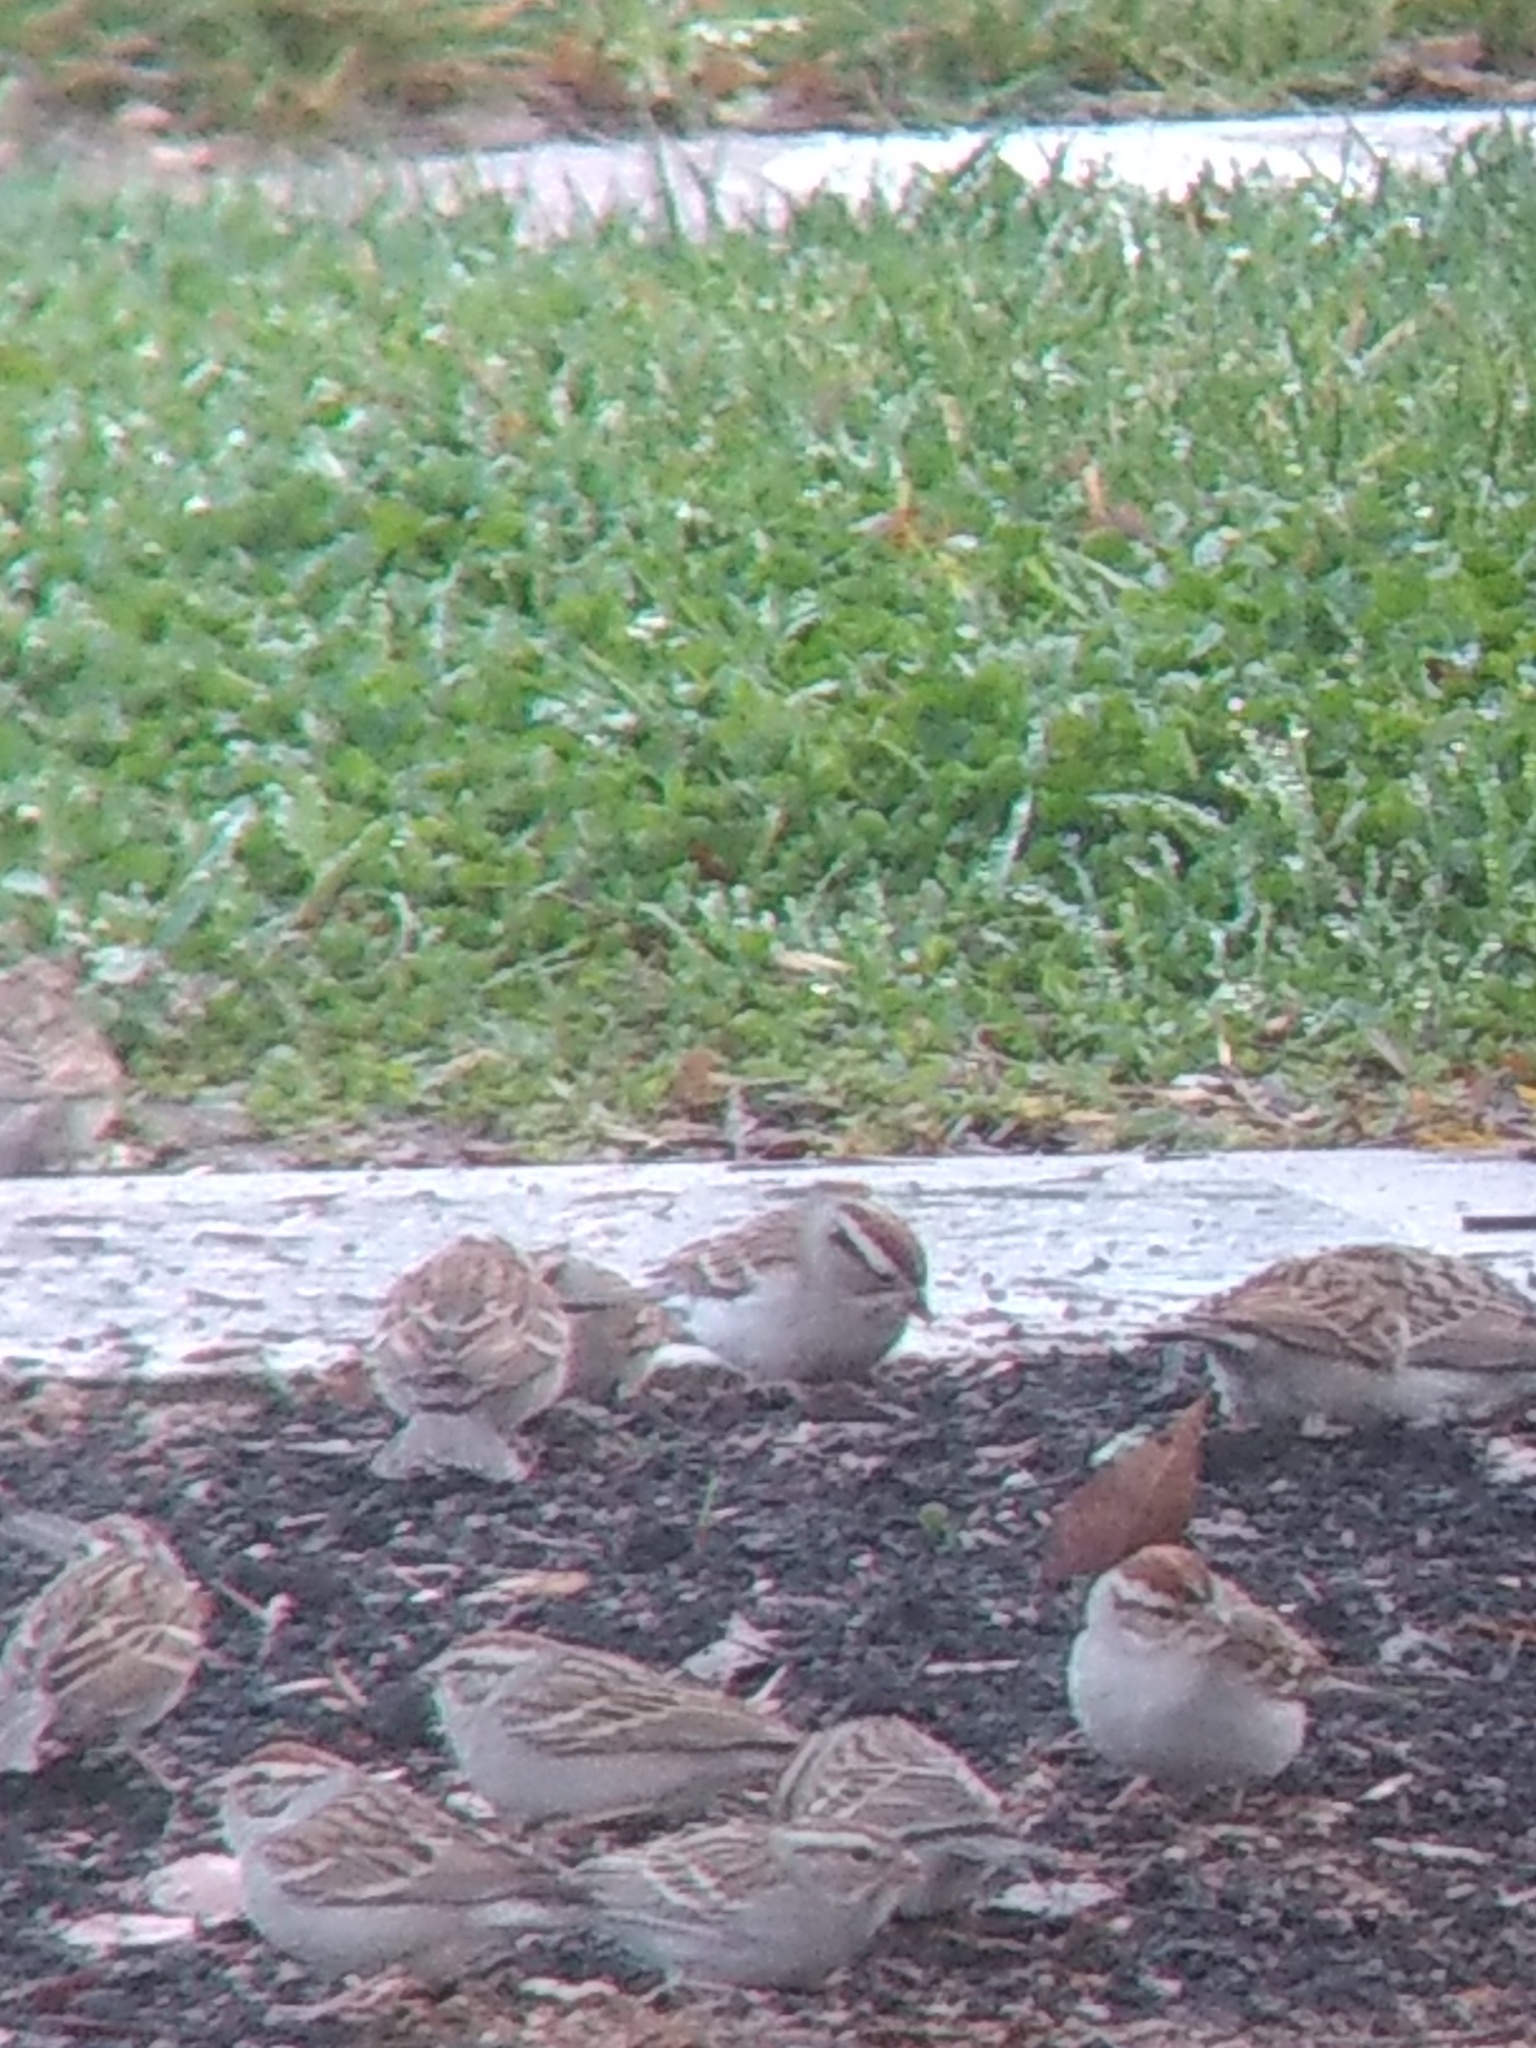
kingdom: Animalia
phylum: Chordata
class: Aves
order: Passeriformes
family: Passerellidae
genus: Spizella
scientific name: Spizella passerina
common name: Chipping sparrow
